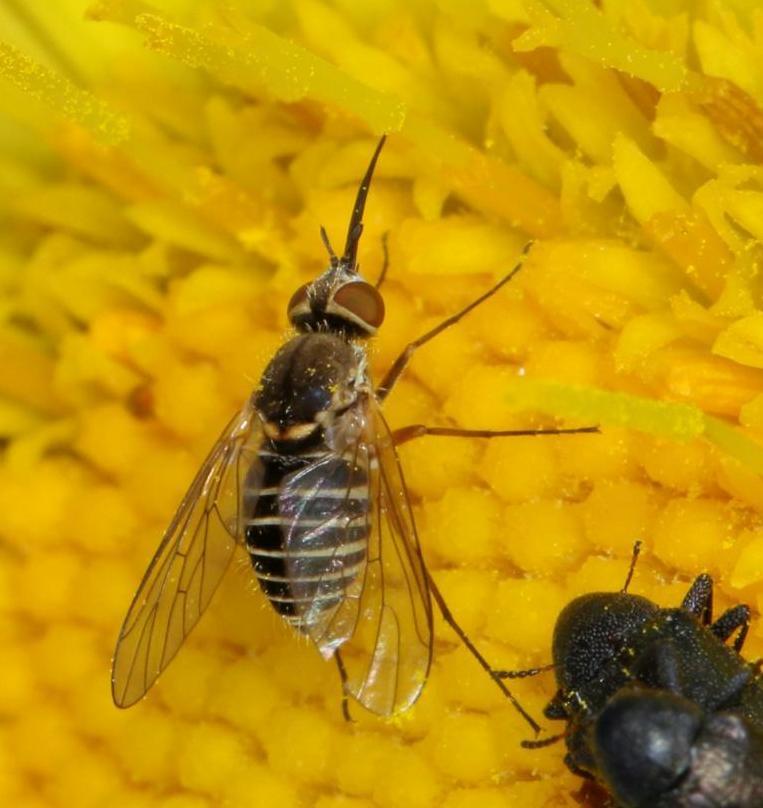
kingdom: Animalia
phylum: Arthropoda
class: Insecta
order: Diptera
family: Bombyliidae
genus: Phthiria
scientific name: Phthiria laeta
